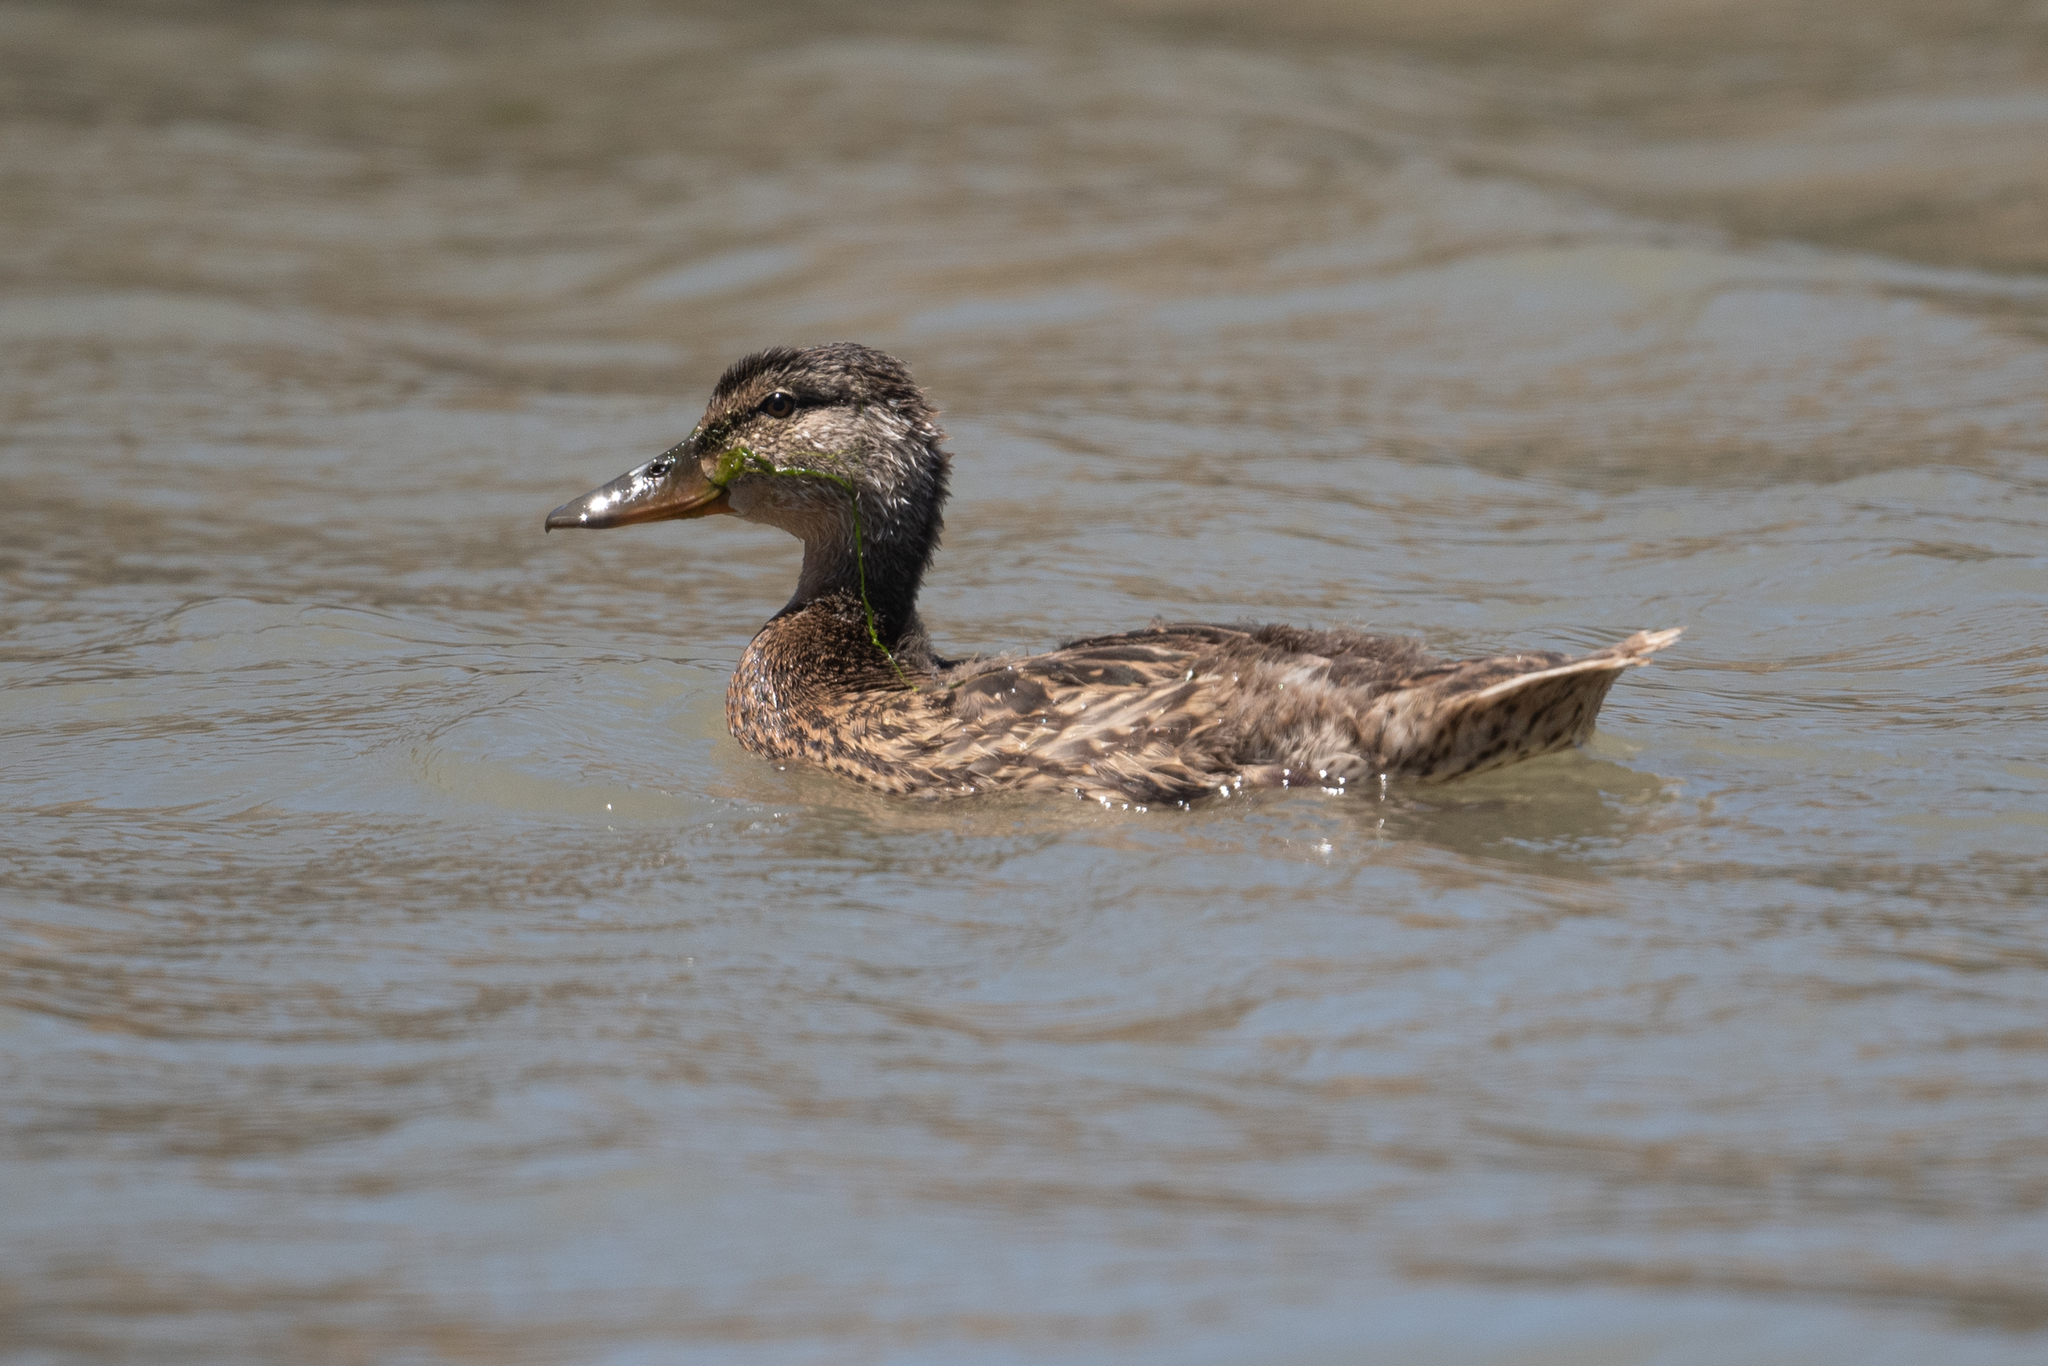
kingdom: Animalia
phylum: Chordata
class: Aves
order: Anseriformes
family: Anatidae
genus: Anas
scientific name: Anas platyrhynchos
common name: Mallard
